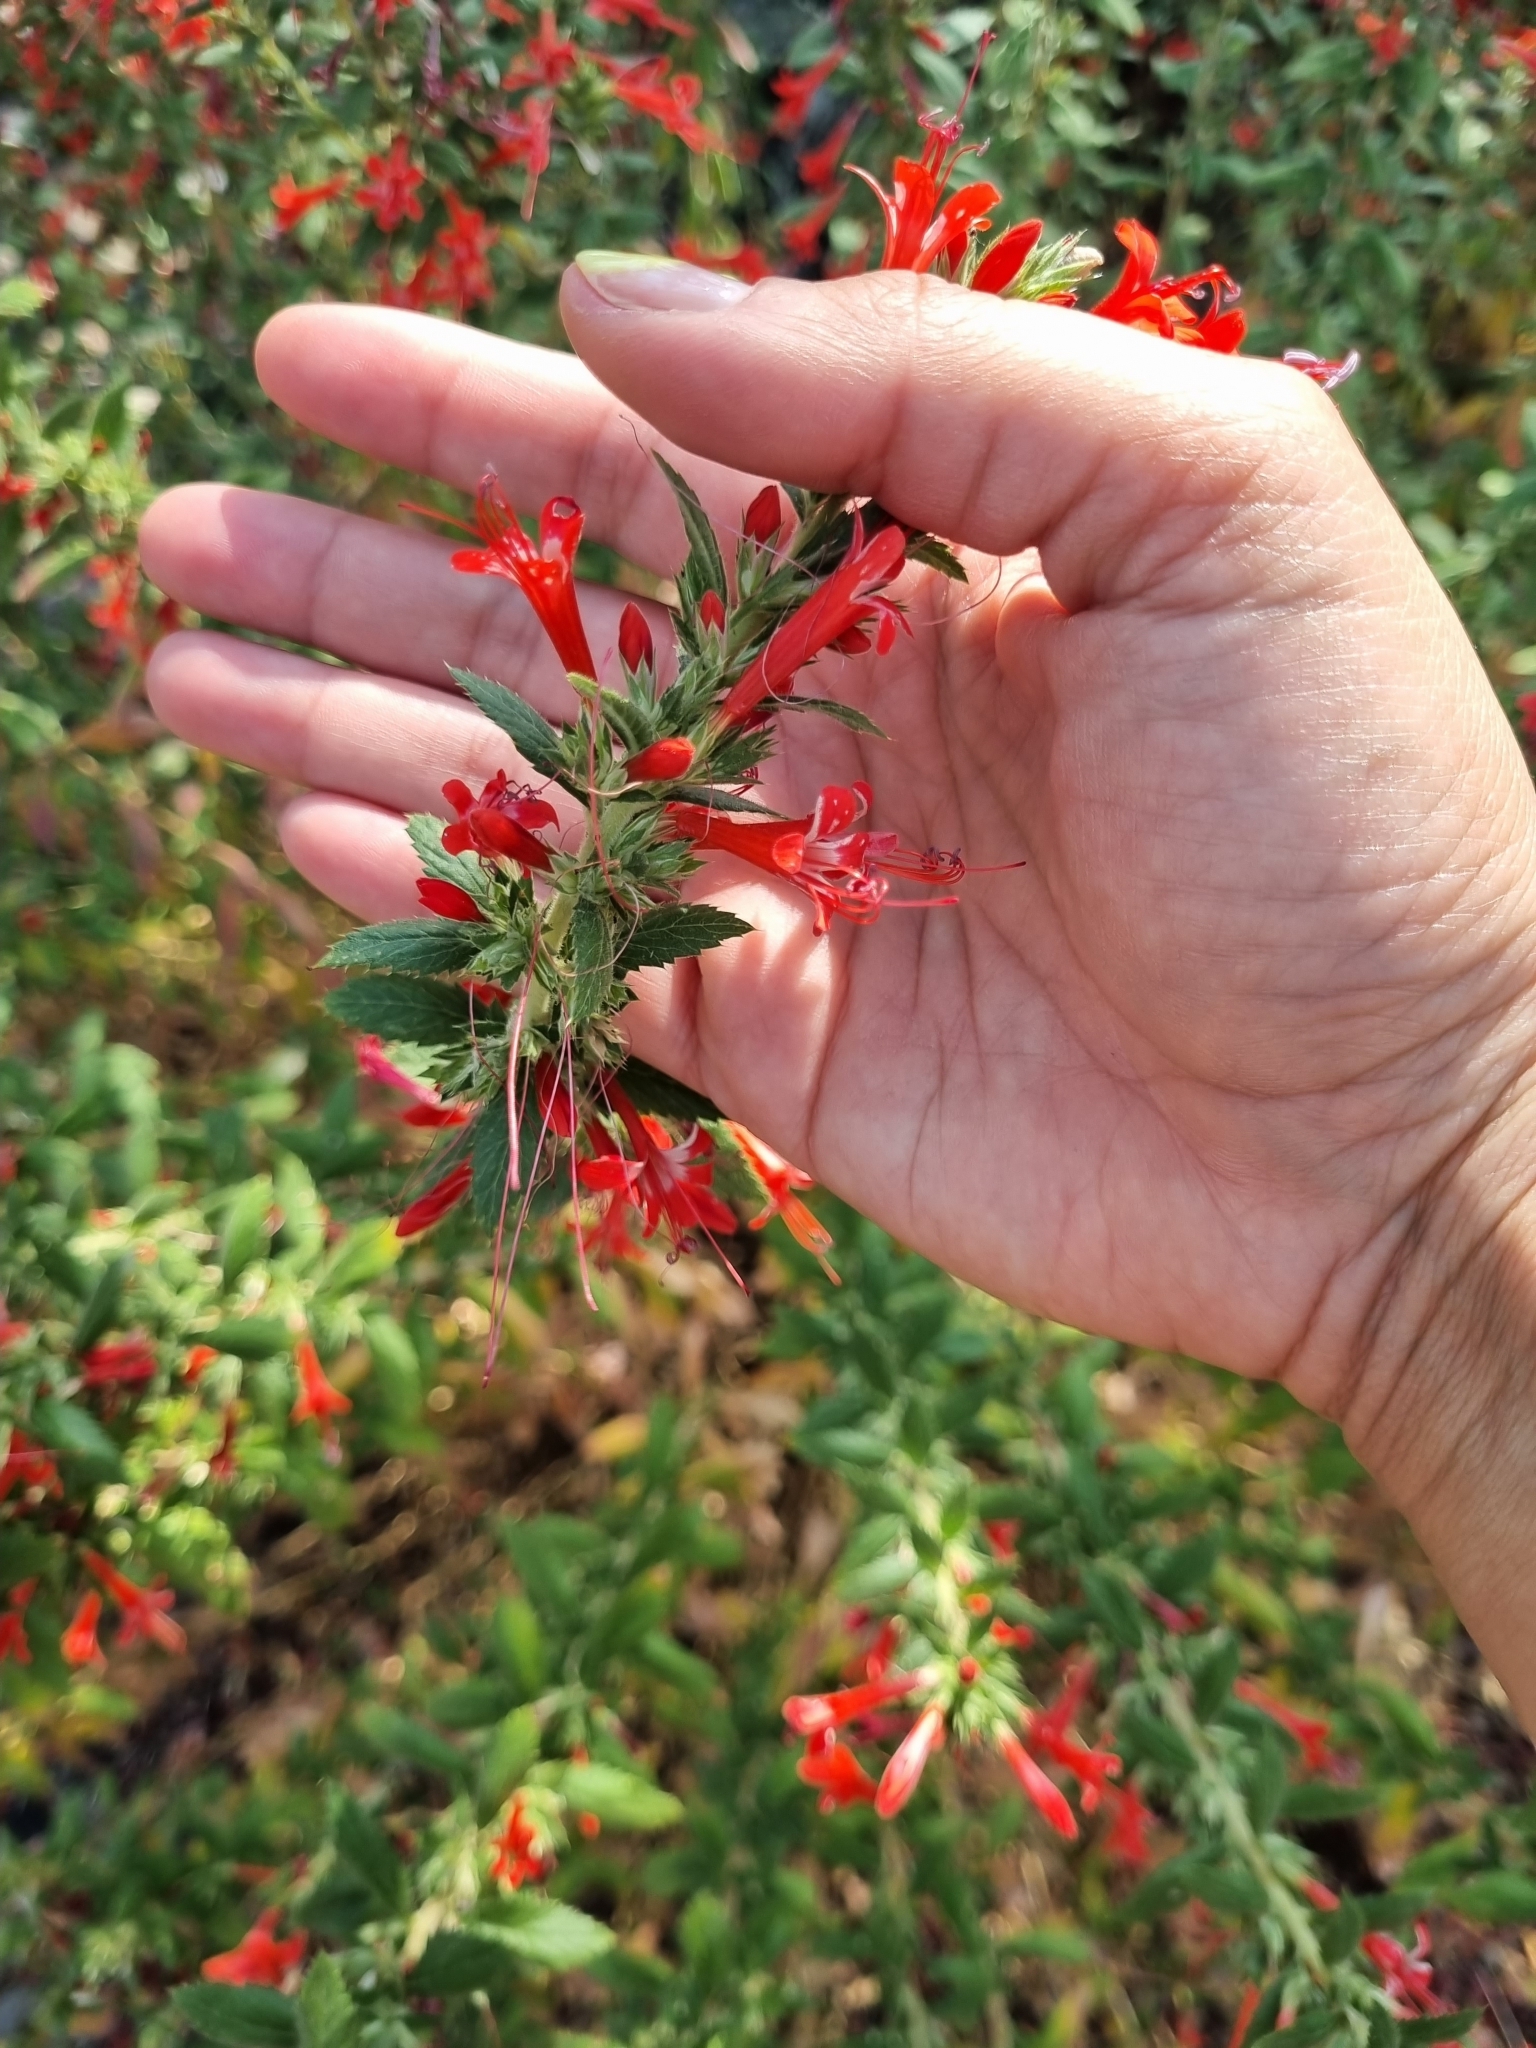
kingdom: Plantae
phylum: Tracheophyta
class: Magnoliopsida
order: Ericales
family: Polemoniaceae
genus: Loeselia
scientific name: Loeselia mexicana
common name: Mexican false calico
